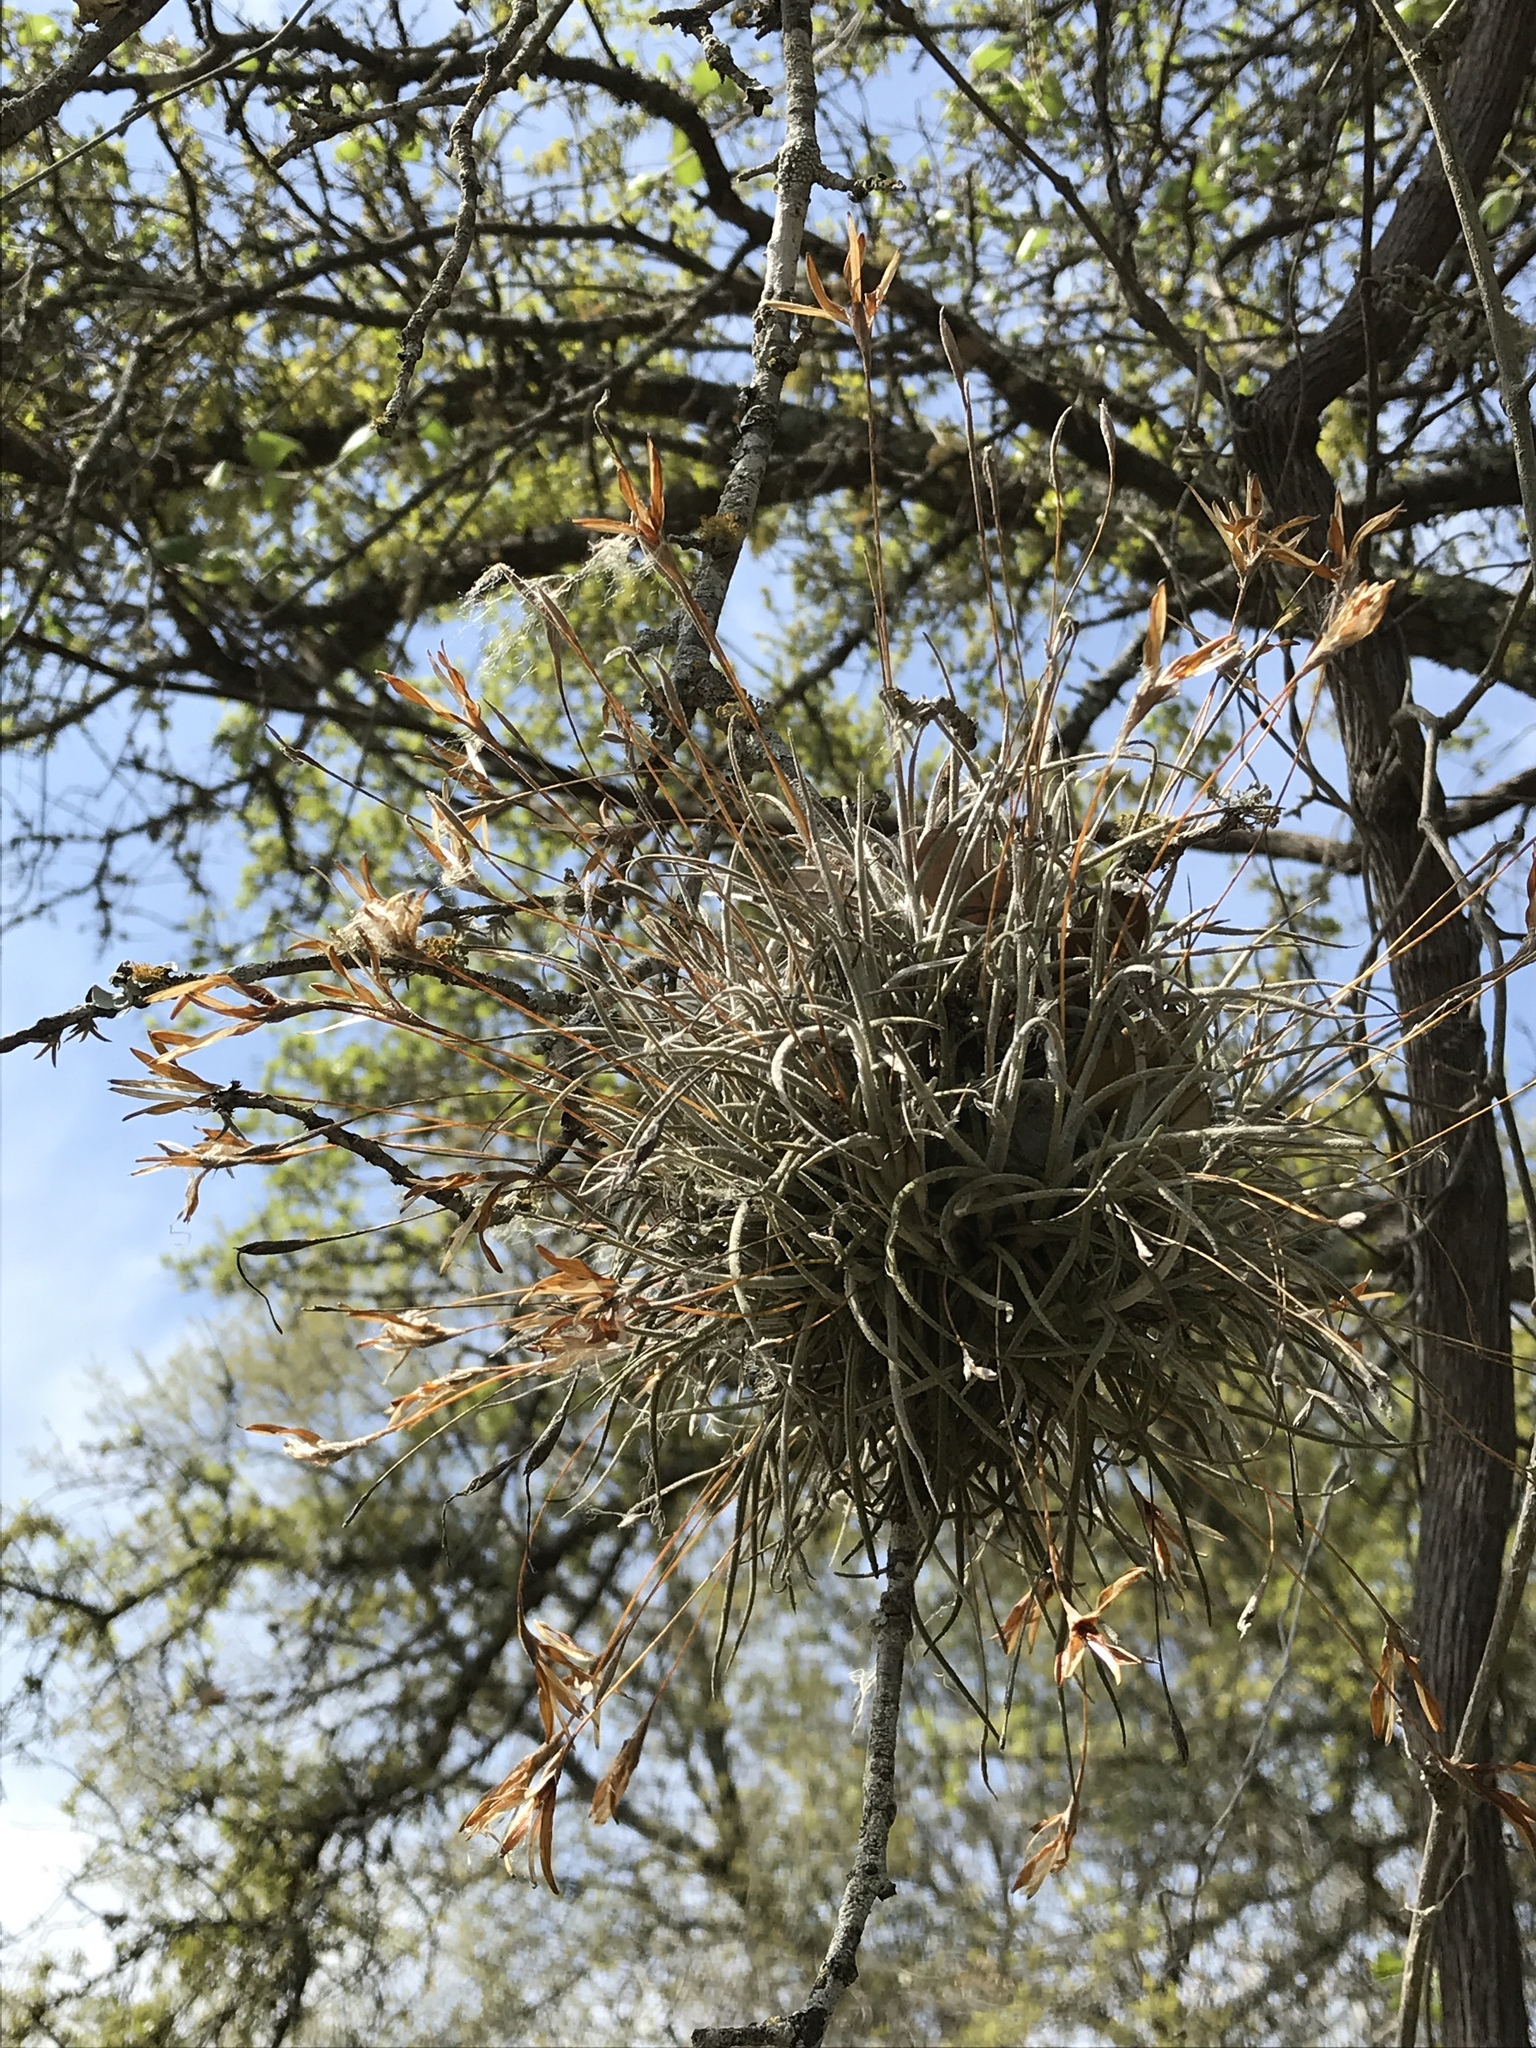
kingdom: Plantae
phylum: Tracheophyta
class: Liliopsida
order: Poales
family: Bromeliaceae
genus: Tillandsia
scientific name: Tillandsia recurvata
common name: Small ballmoss
